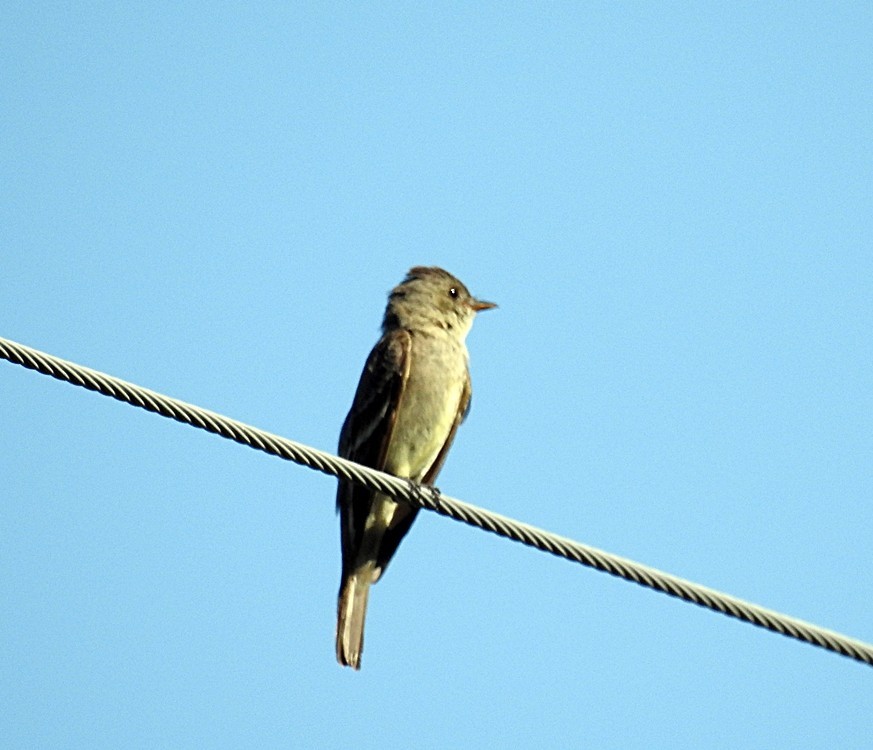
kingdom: Animalia
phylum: Chordata
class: Aves
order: Passeriformes
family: Tyrannidae
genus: Contopus
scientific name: Contopus sordidulus
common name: Western wood-pewee
